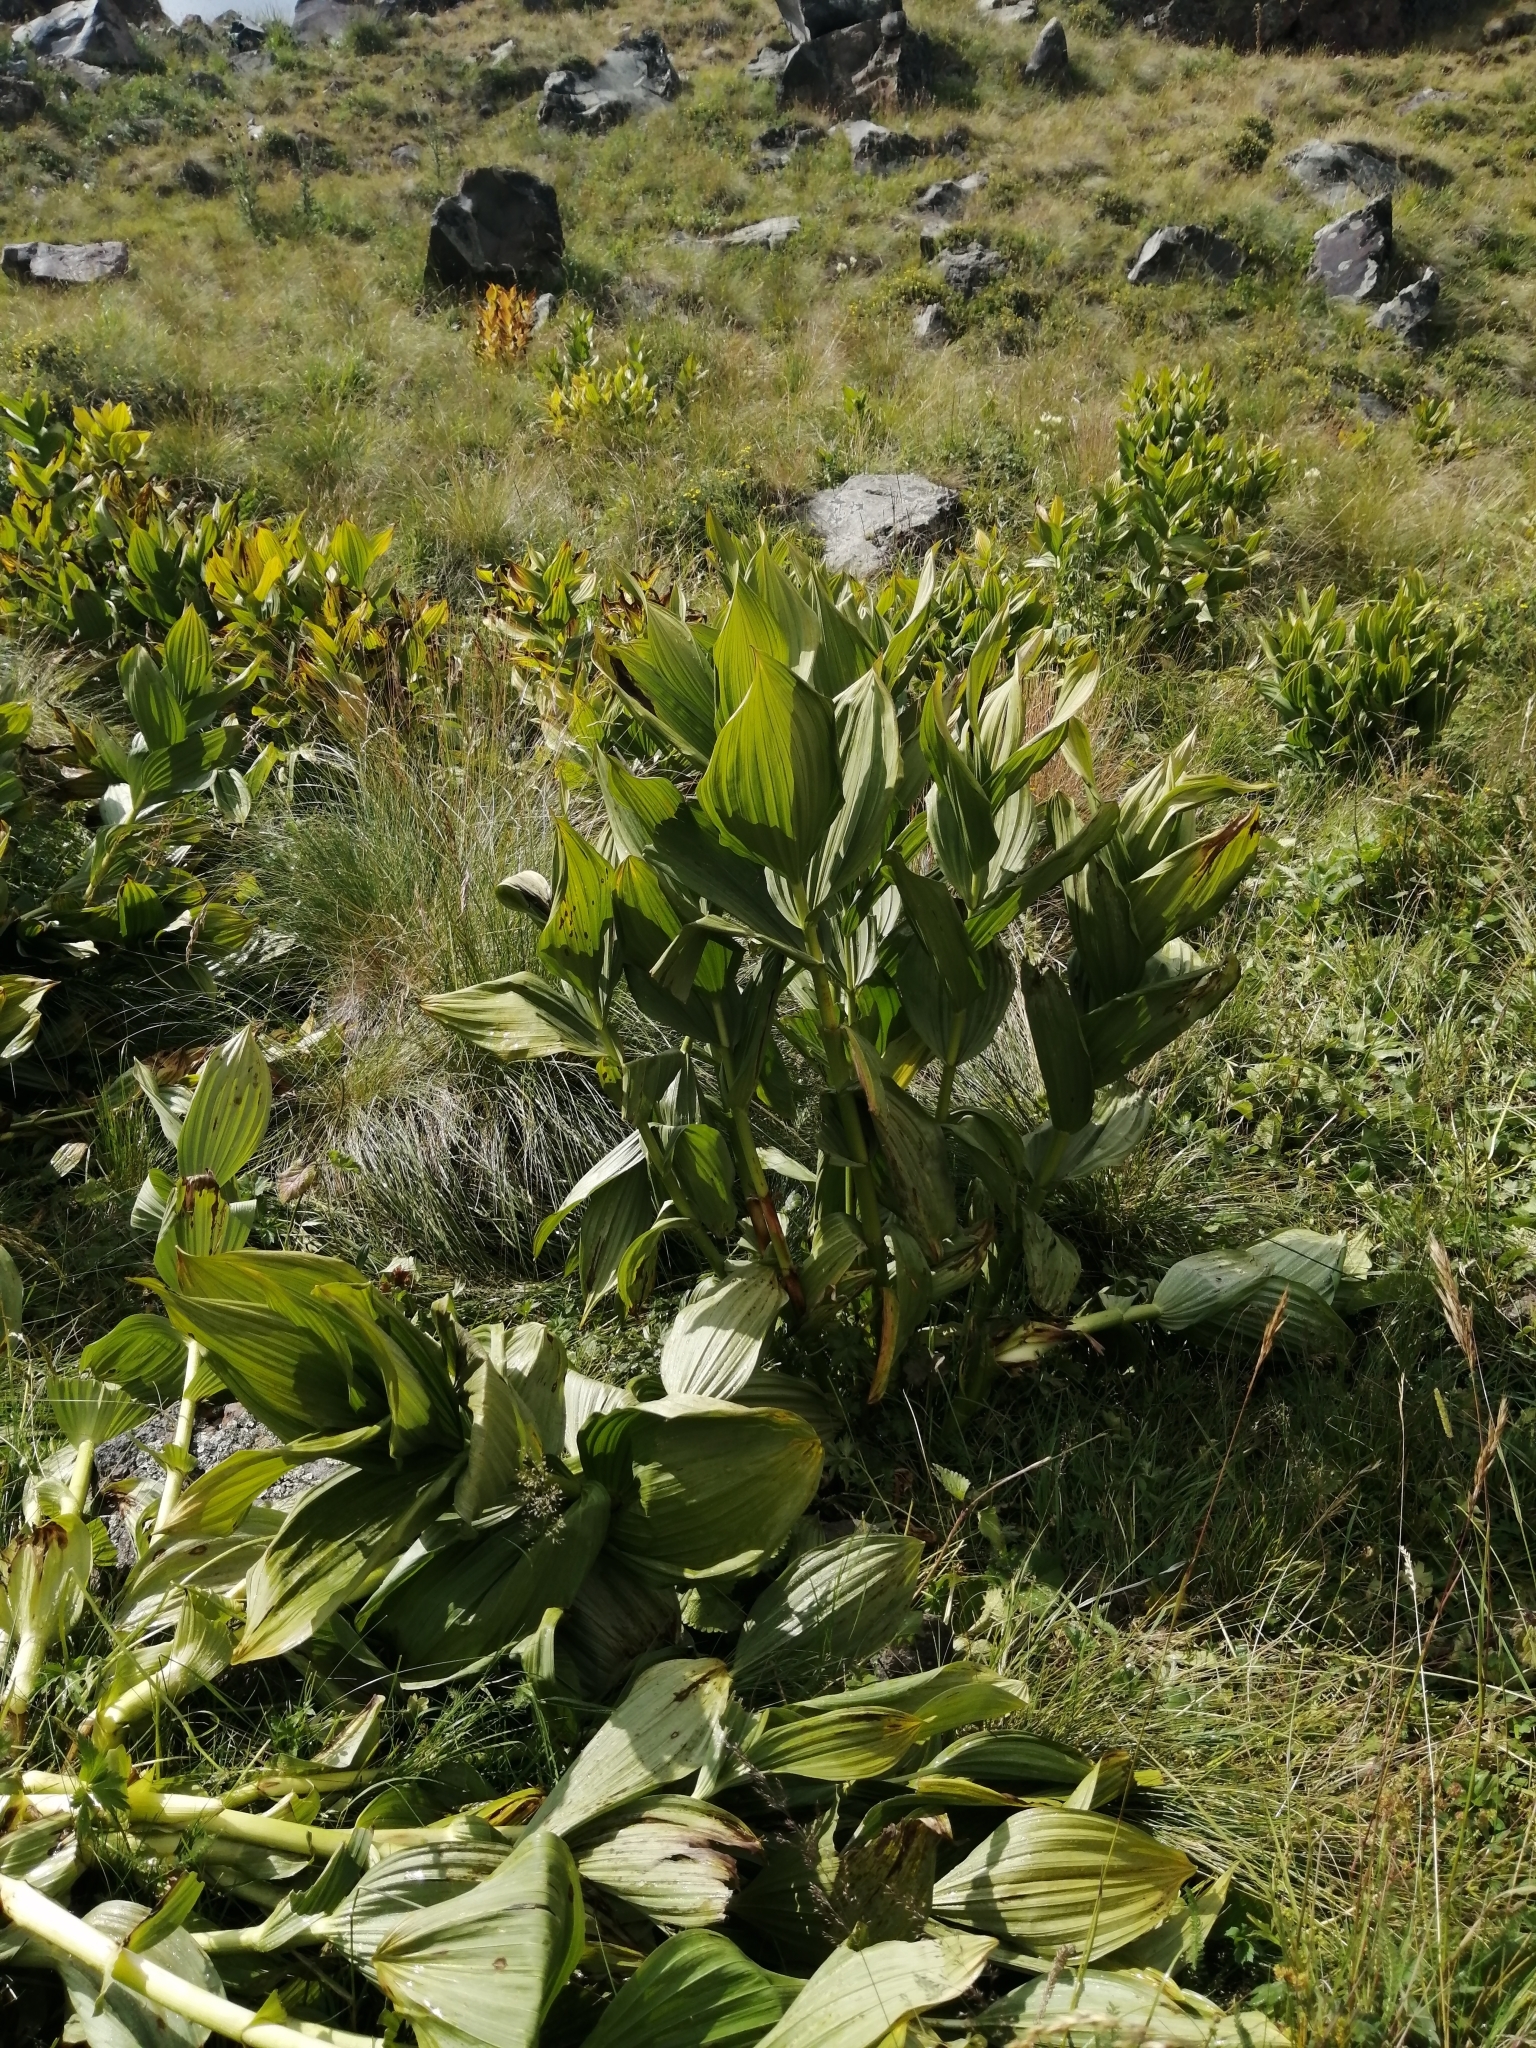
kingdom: Plantae
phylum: Tracheophyta
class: Liliopsida
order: Liliales
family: Melanthiaceae
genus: Veratrum
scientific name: Veratrum lobelianum
